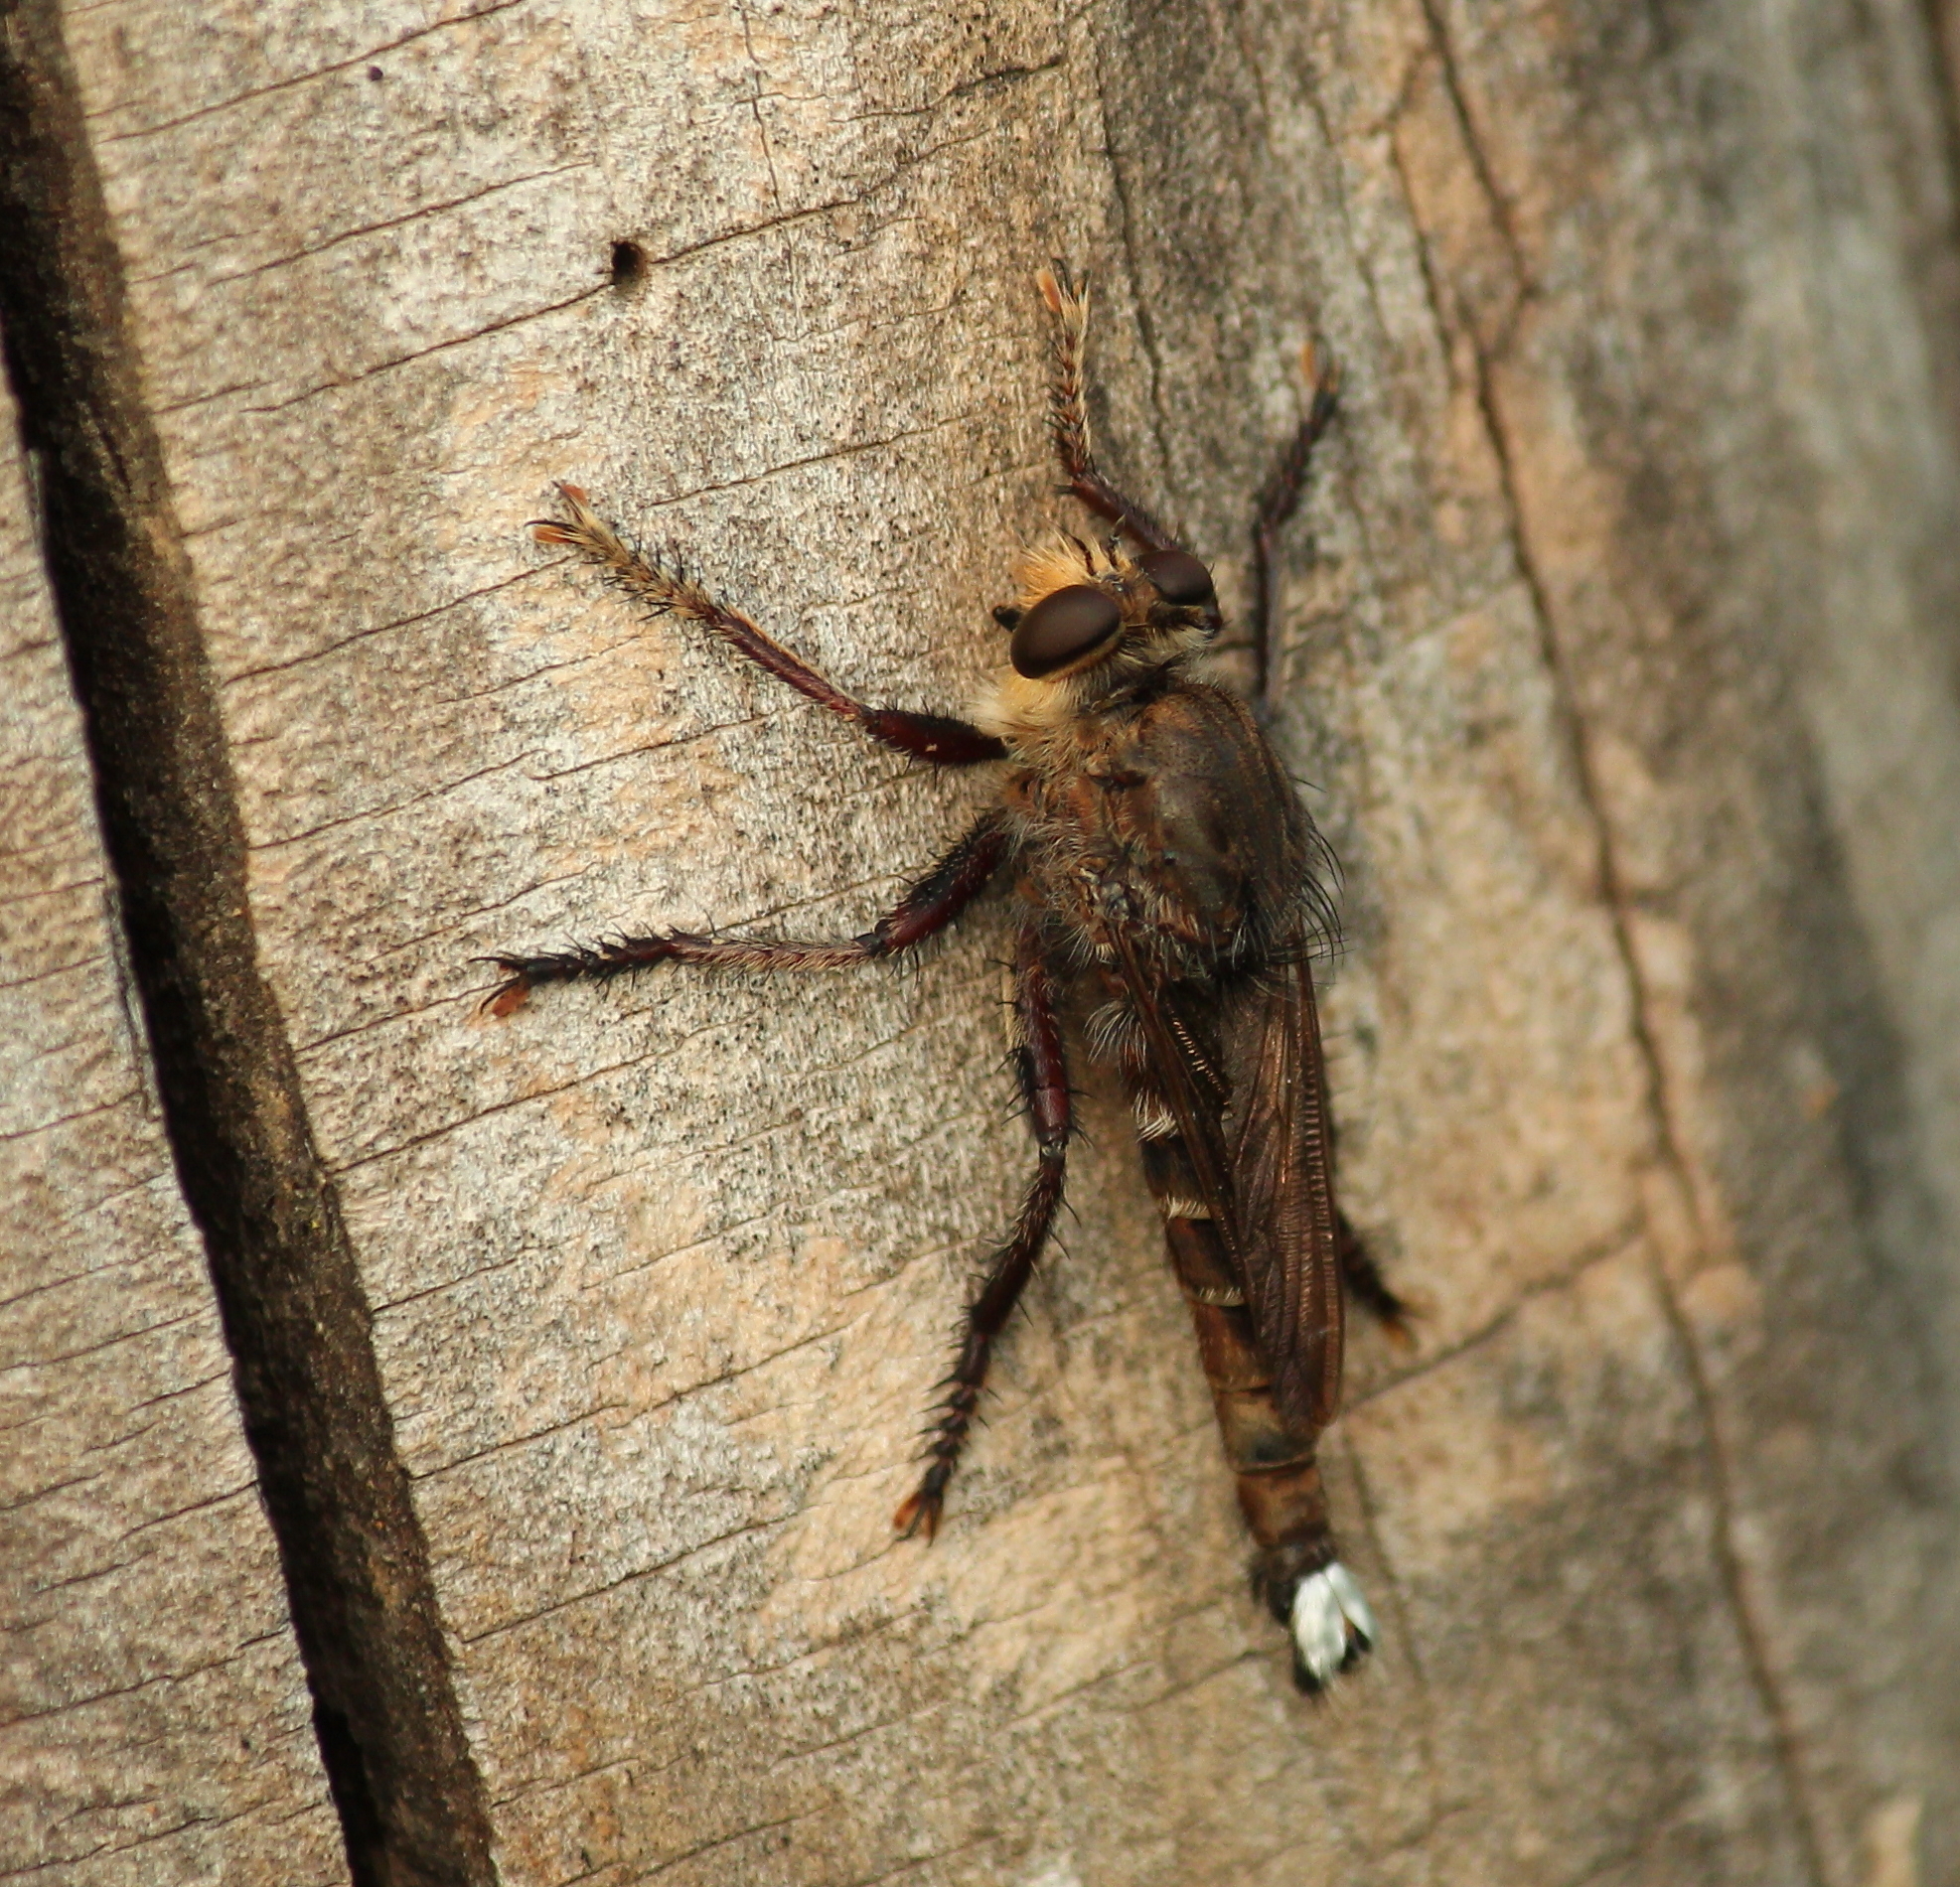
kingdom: Animalia
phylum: Arthropoda
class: Insecta
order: Diptera
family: Asilidae
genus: Promachus
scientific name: Promachus bastardii
